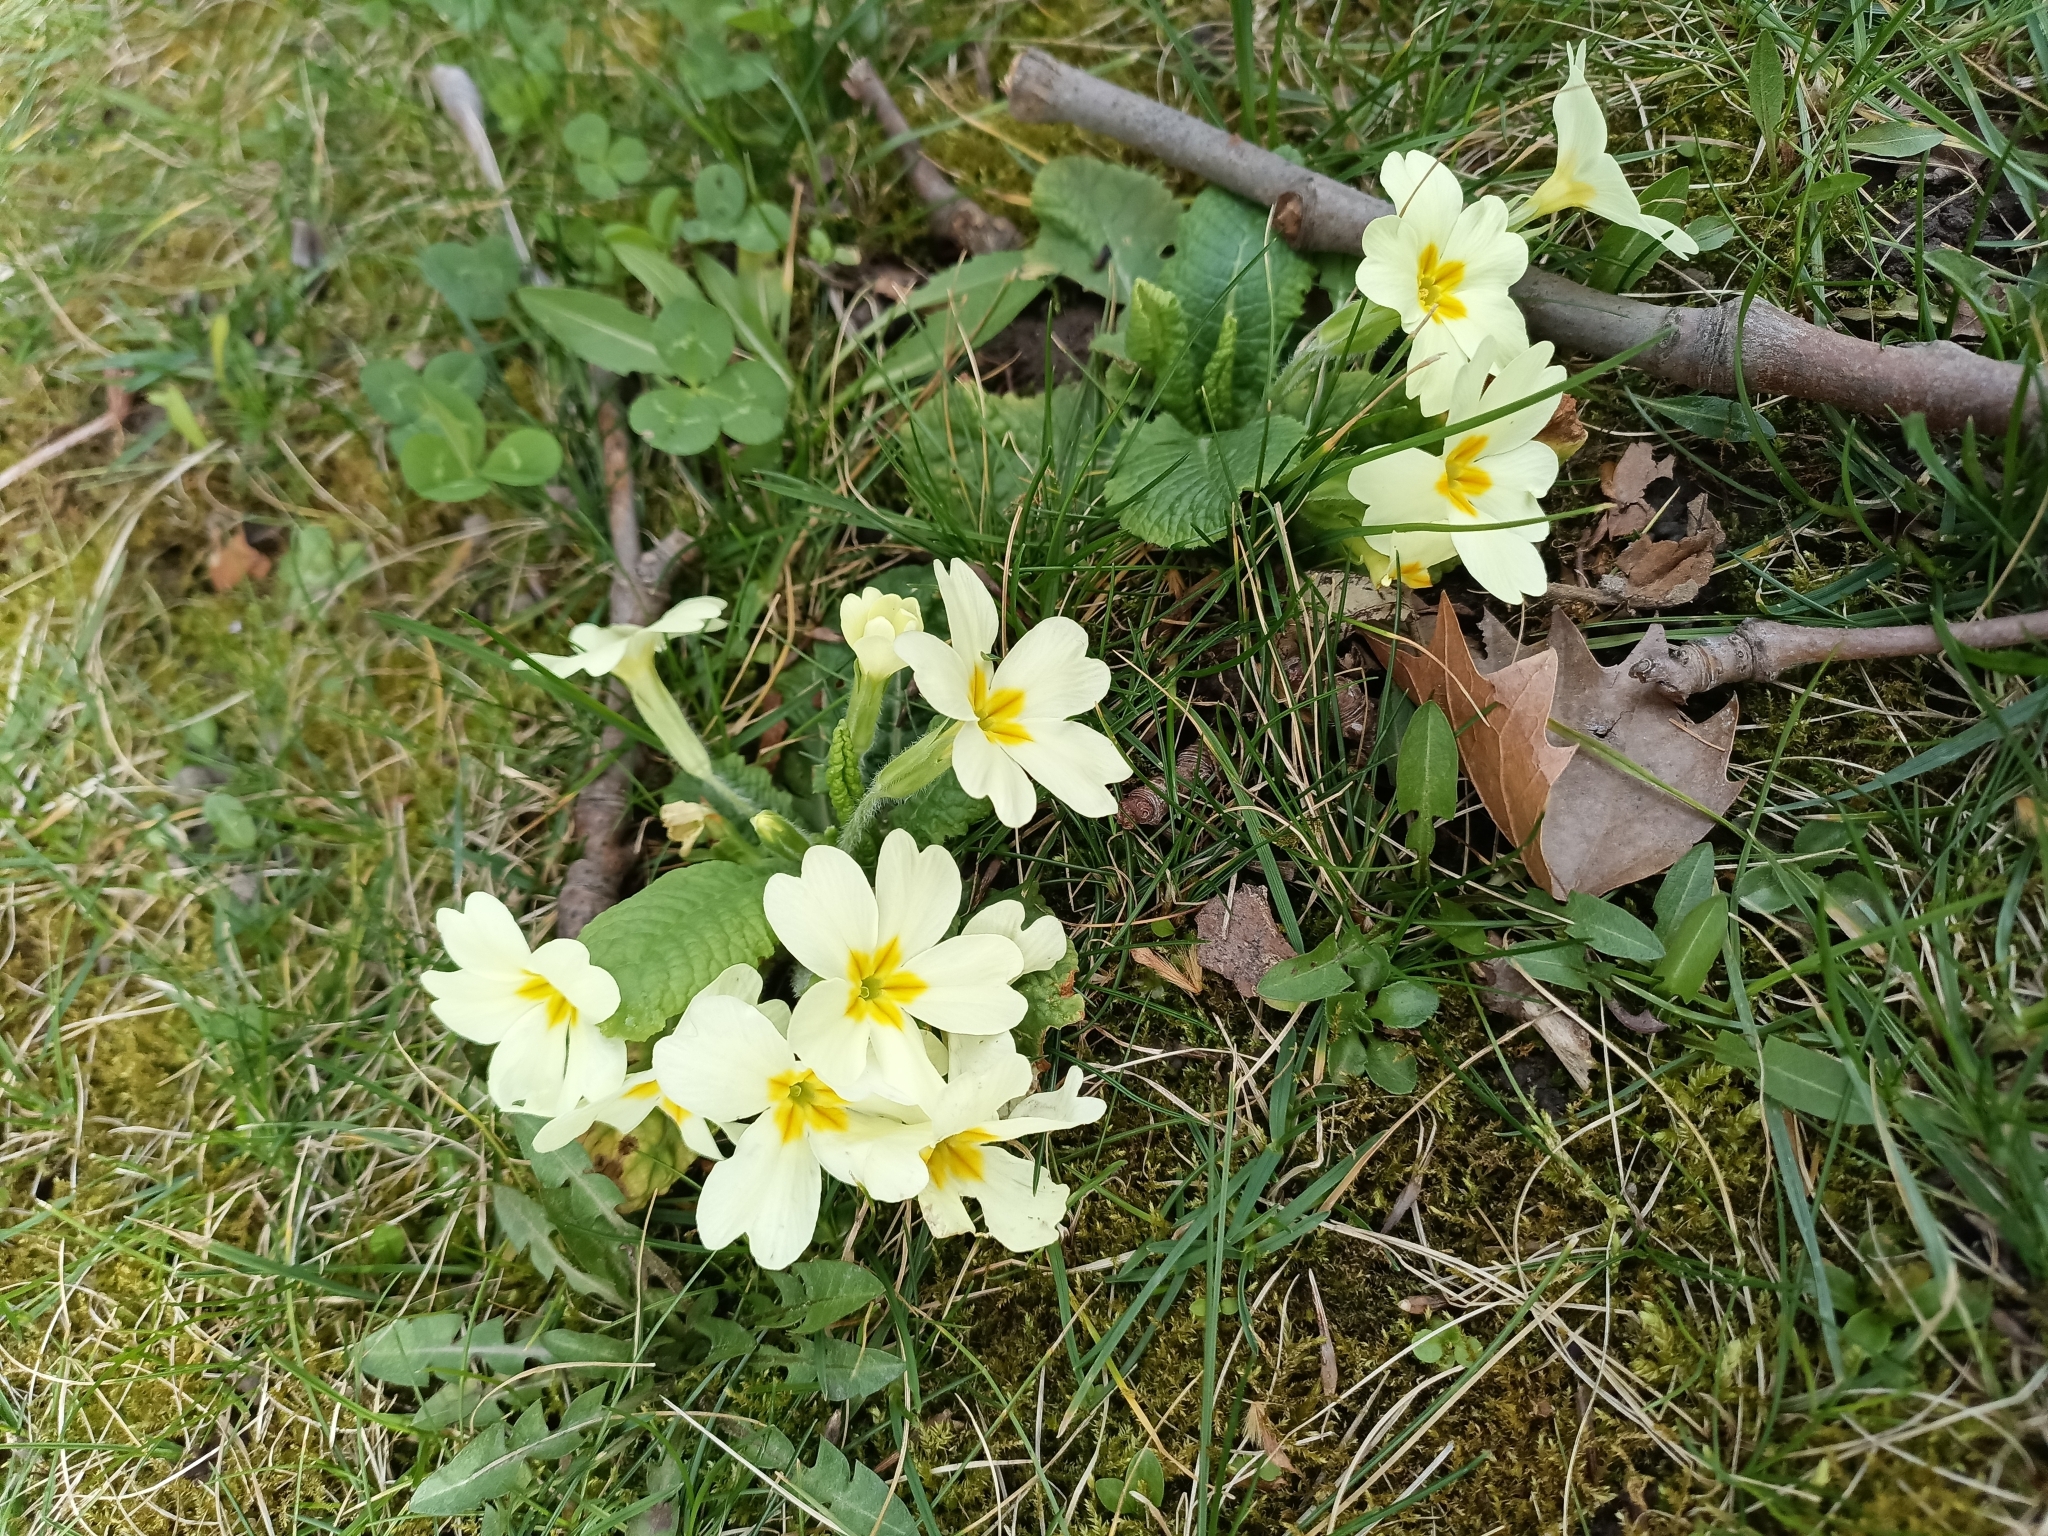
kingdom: Plantae
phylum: Tracheophyta
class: Magnoliopsida
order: Ericales
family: Primulaceae
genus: Primula
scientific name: Primula vulgaris
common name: Primrose
